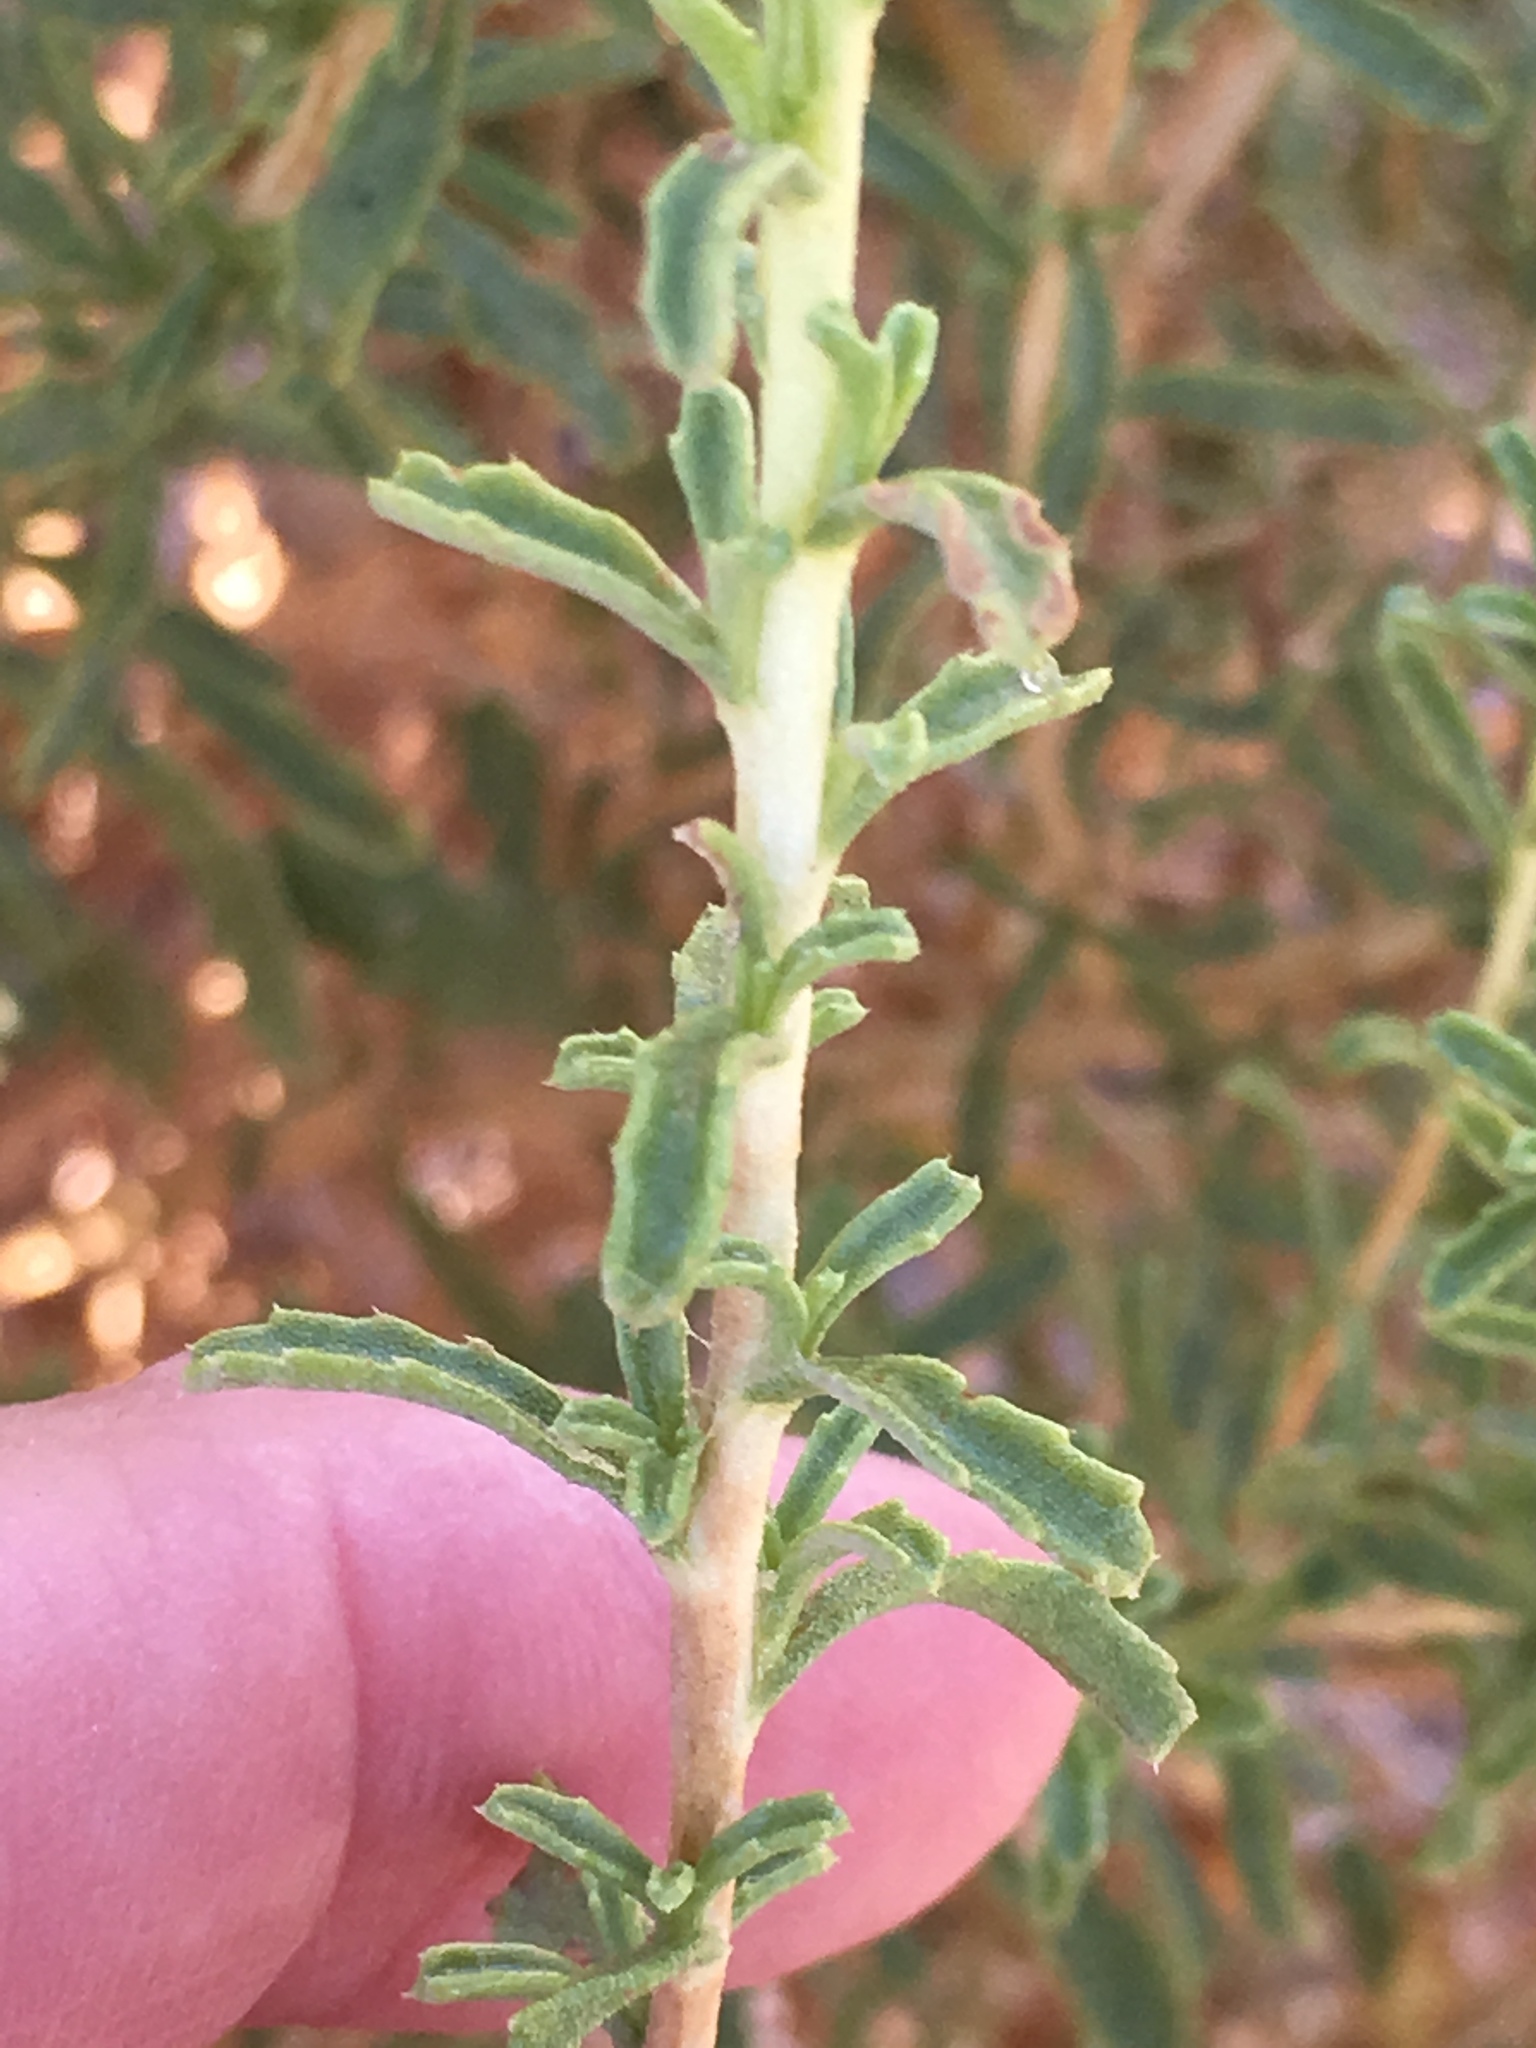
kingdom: Plantae
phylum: Tracheophyta
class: Magnoliopsida
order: Asterales
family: Asteraceae
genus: Isocoma
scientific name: Isocoma acradenia
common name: Alkali jimmyweed
